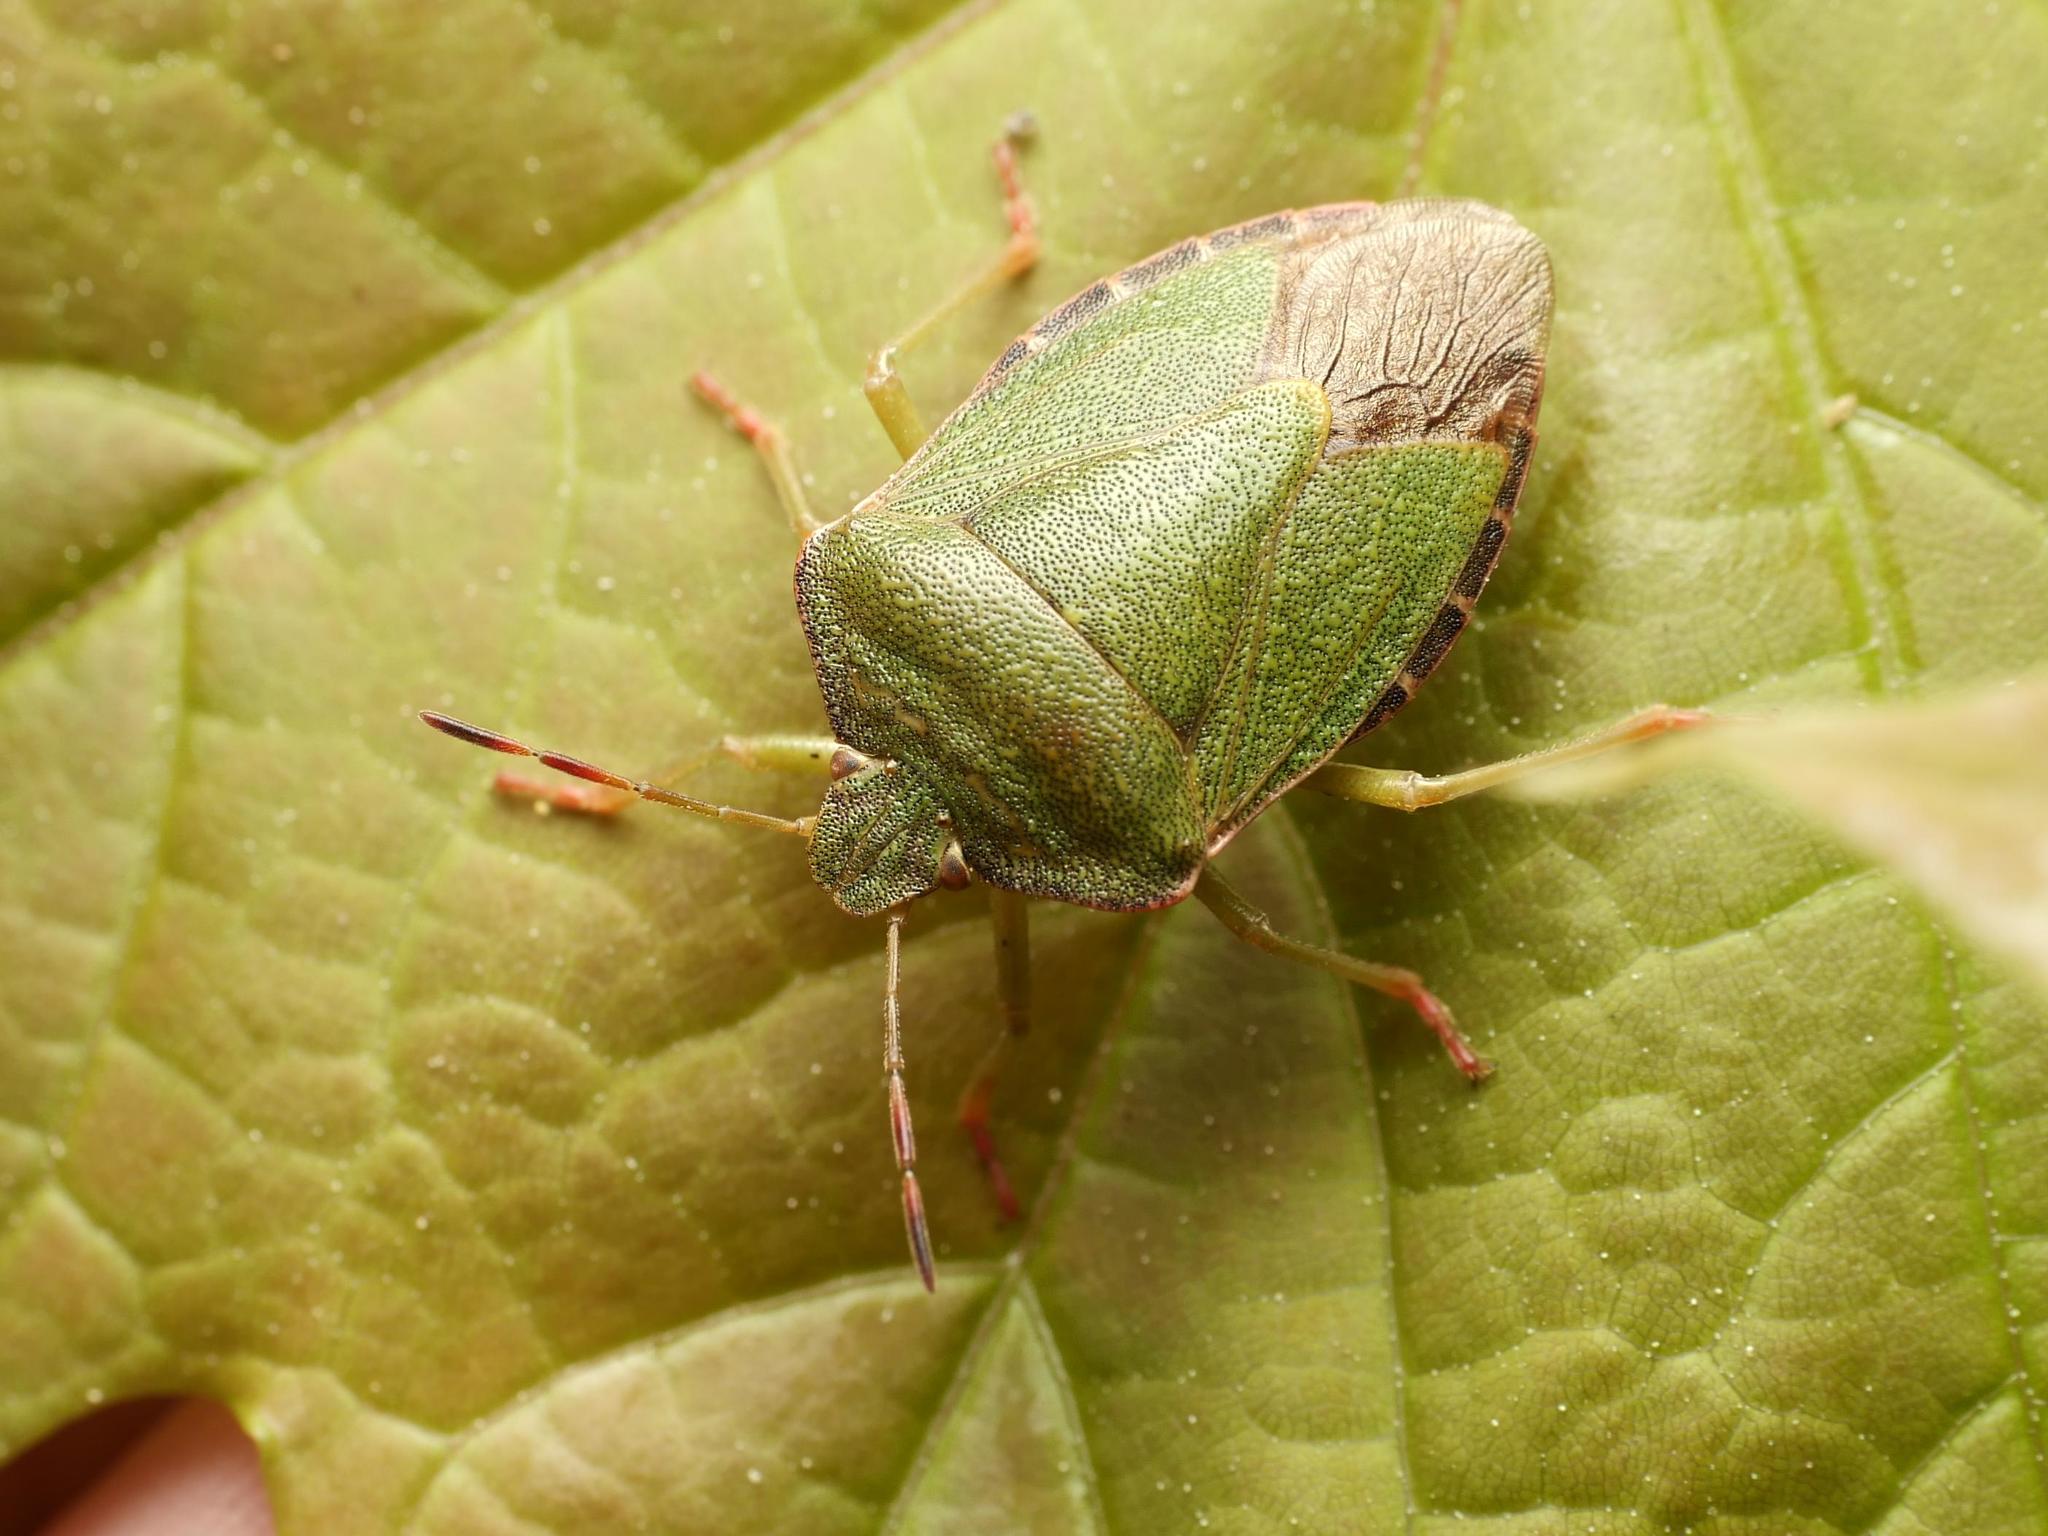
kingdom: Animalia
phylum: Arthropoda
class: Insecta
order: Hemiptera
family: Pentatomidae
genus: Palomena
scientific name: Palomena prasina
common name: Green shieldbug
